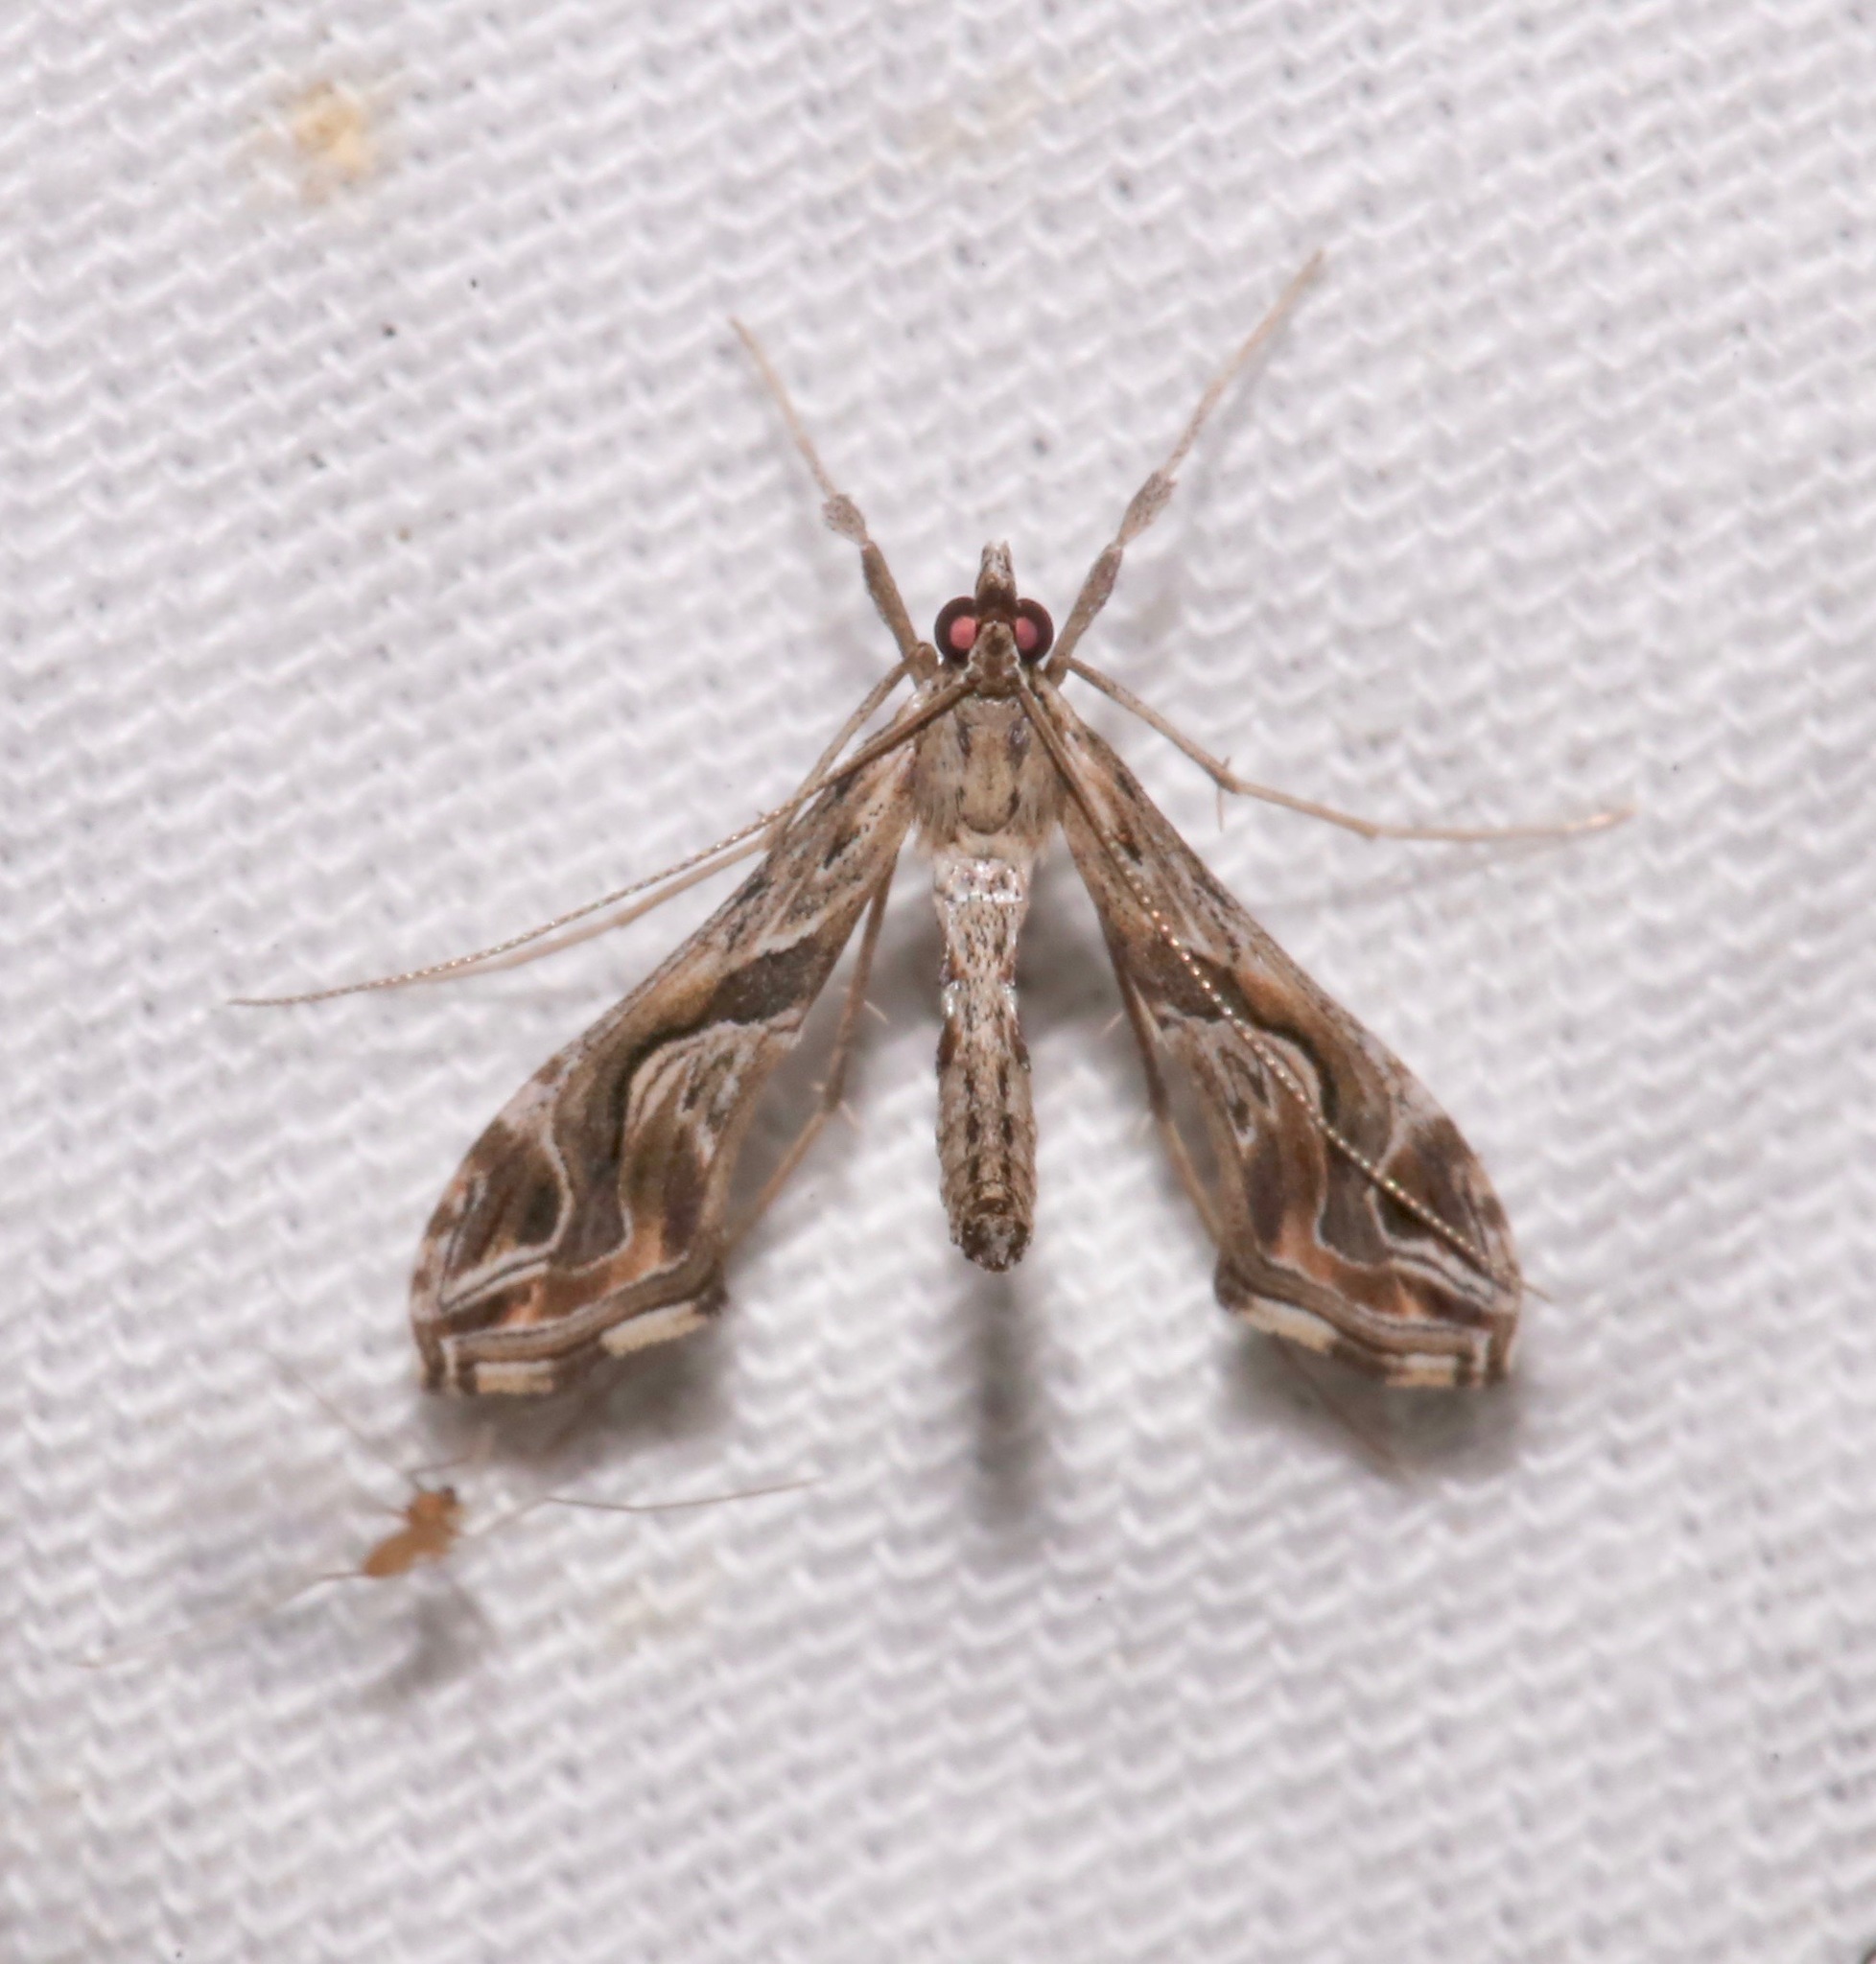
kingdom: Animalia
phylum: Arthropoda
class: Insecta
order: Lepidoptera
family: Crambidae
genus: Lineodes
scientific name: Lineodes integra
